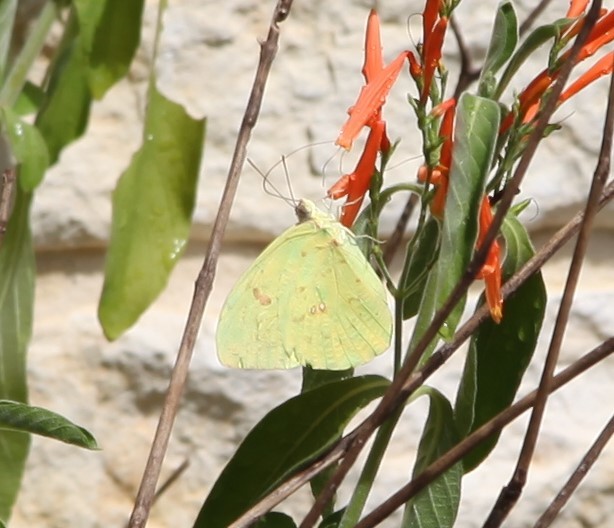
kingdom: Animalia
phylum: Arthropoda
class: Insecta
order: Lepidoptera
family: Pieridae
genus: Phoebis
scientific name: Phoebis sennae
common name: Cloudless sulphur
